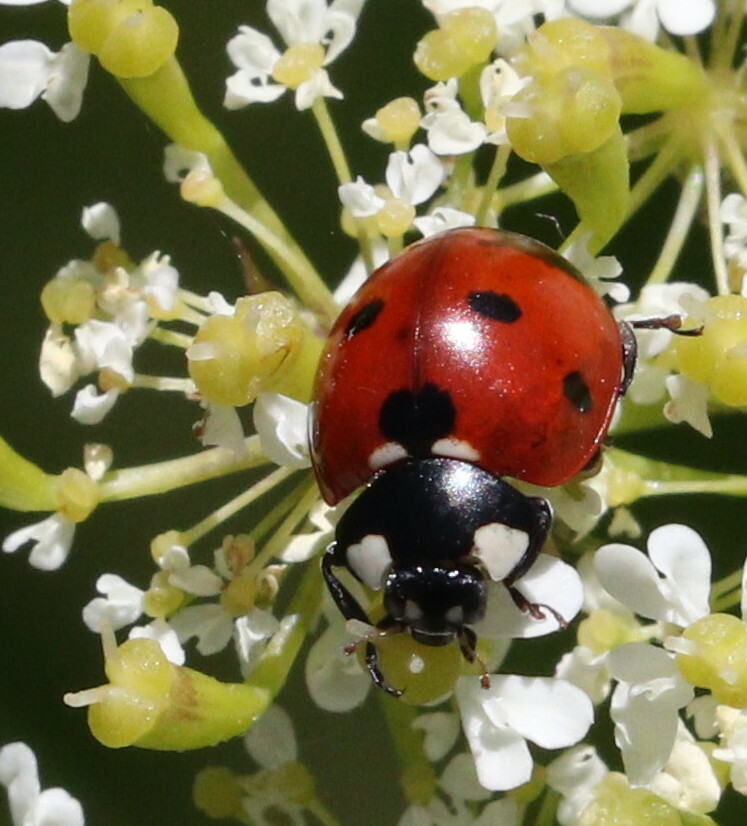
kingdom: Animalia
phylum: Arthropoda
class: Insecta
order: Coleoptera
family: Coccinellidae
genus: Coccinella
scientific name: Coccinella septempunctata
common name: Sevenspotted lady beetle
